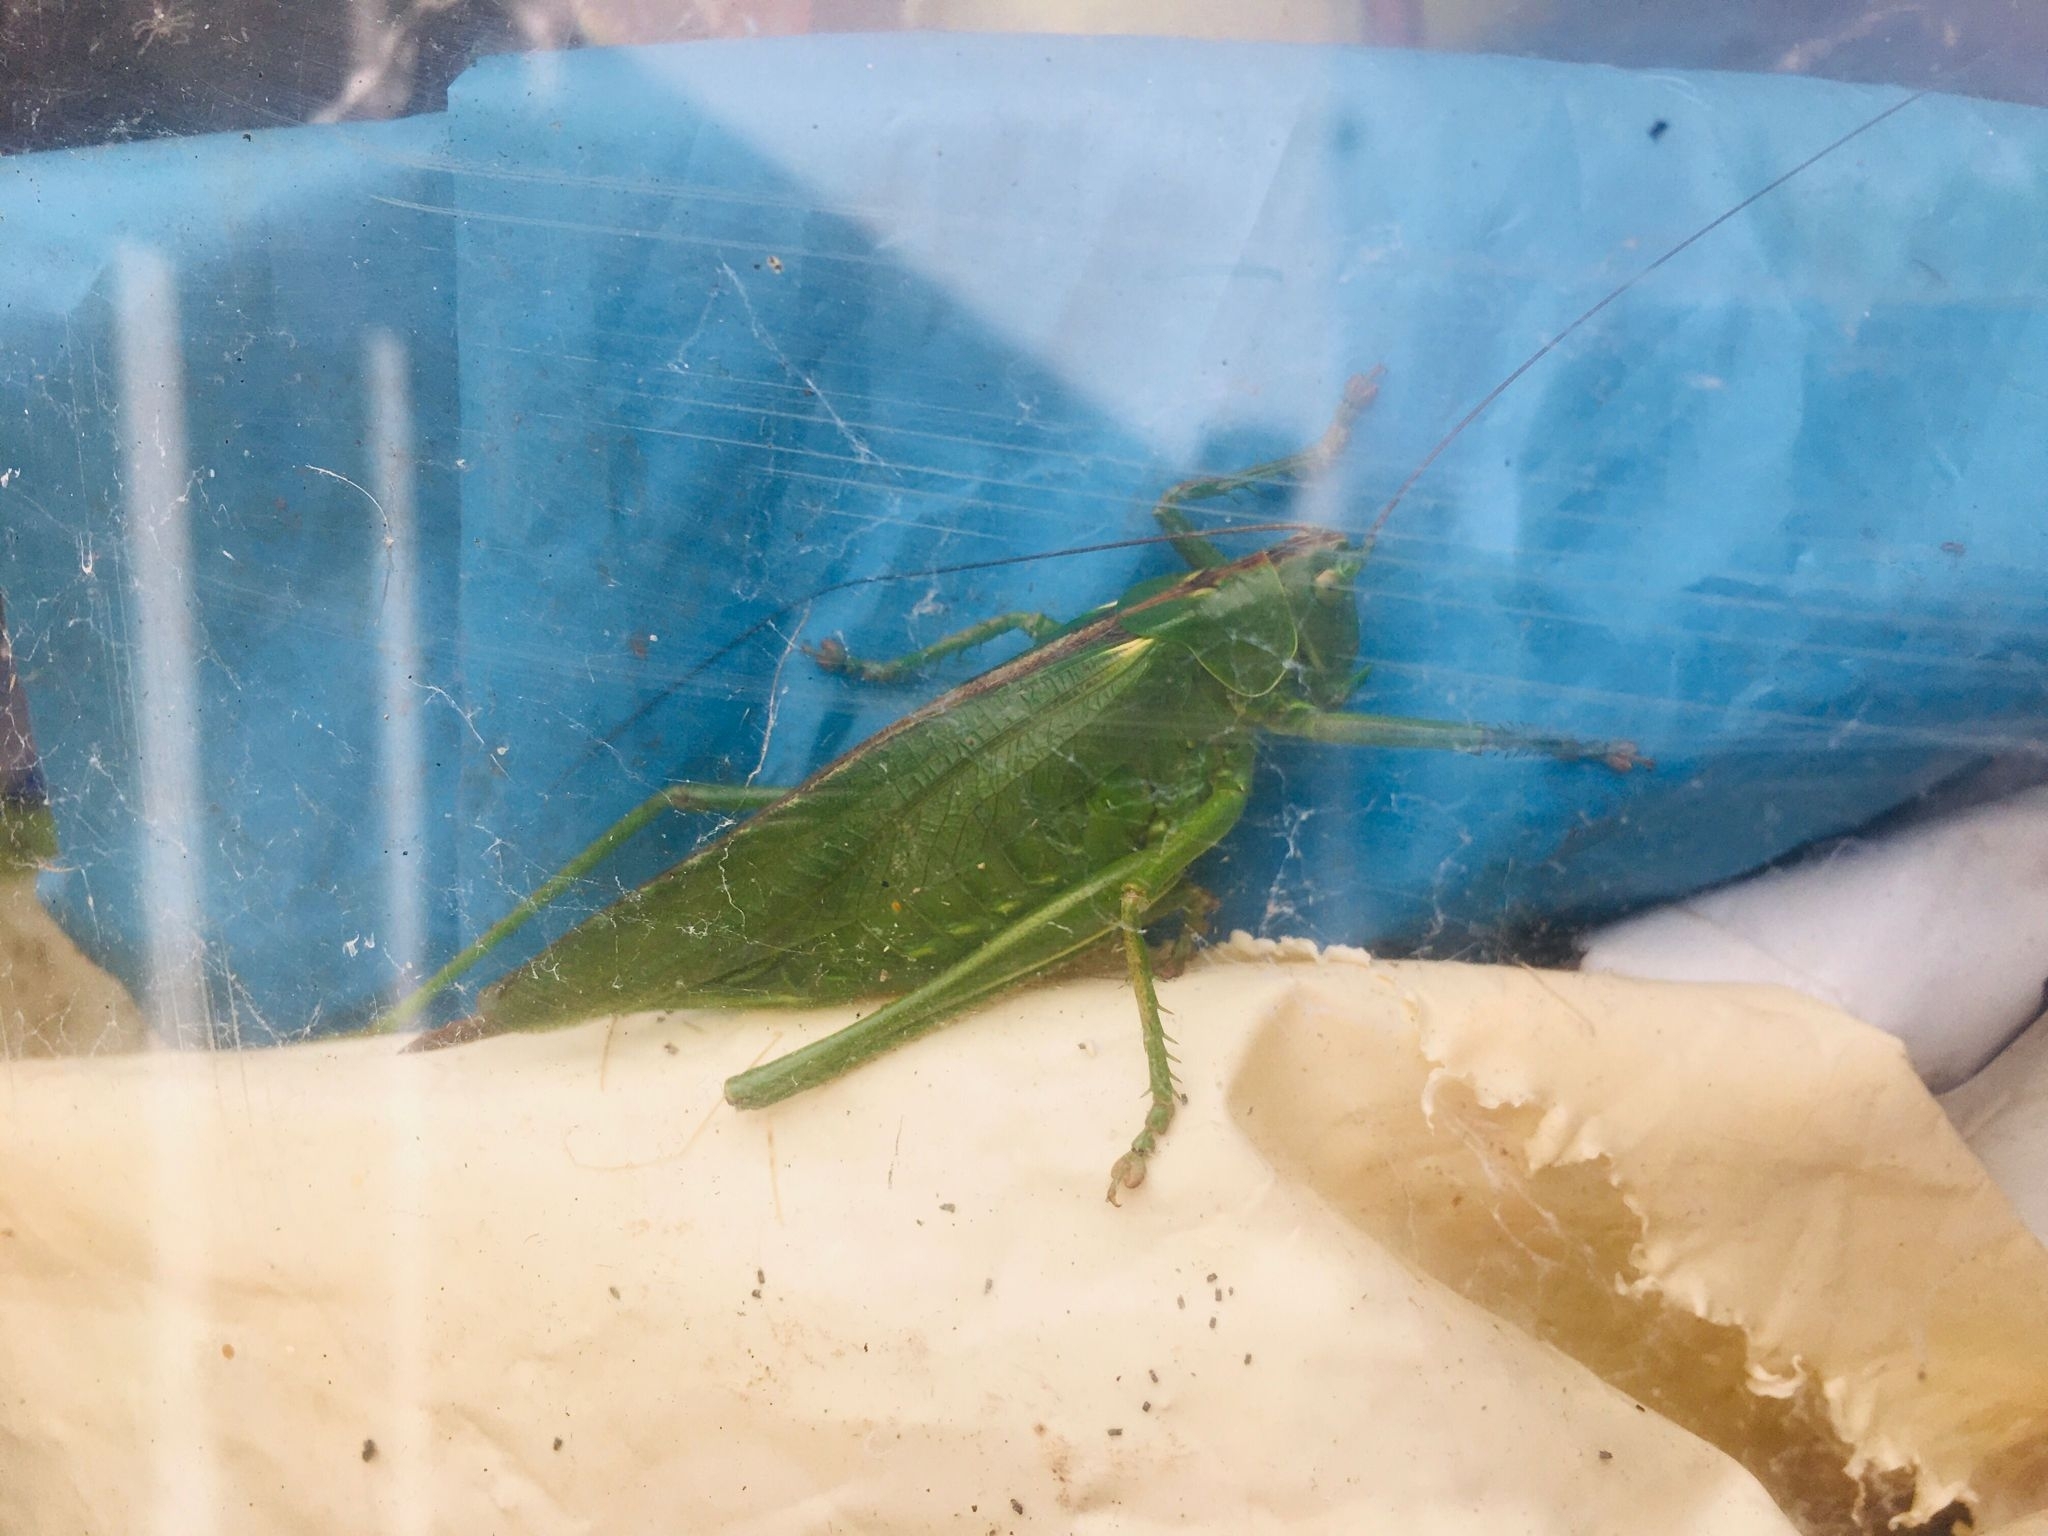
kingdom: Animalia
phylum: Arthropoda
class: Insecta
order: Orthoptera
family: Tettigoniidae
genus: Tettigonia
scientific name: Tettigonia viridissima
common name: Great green bush-cricket
